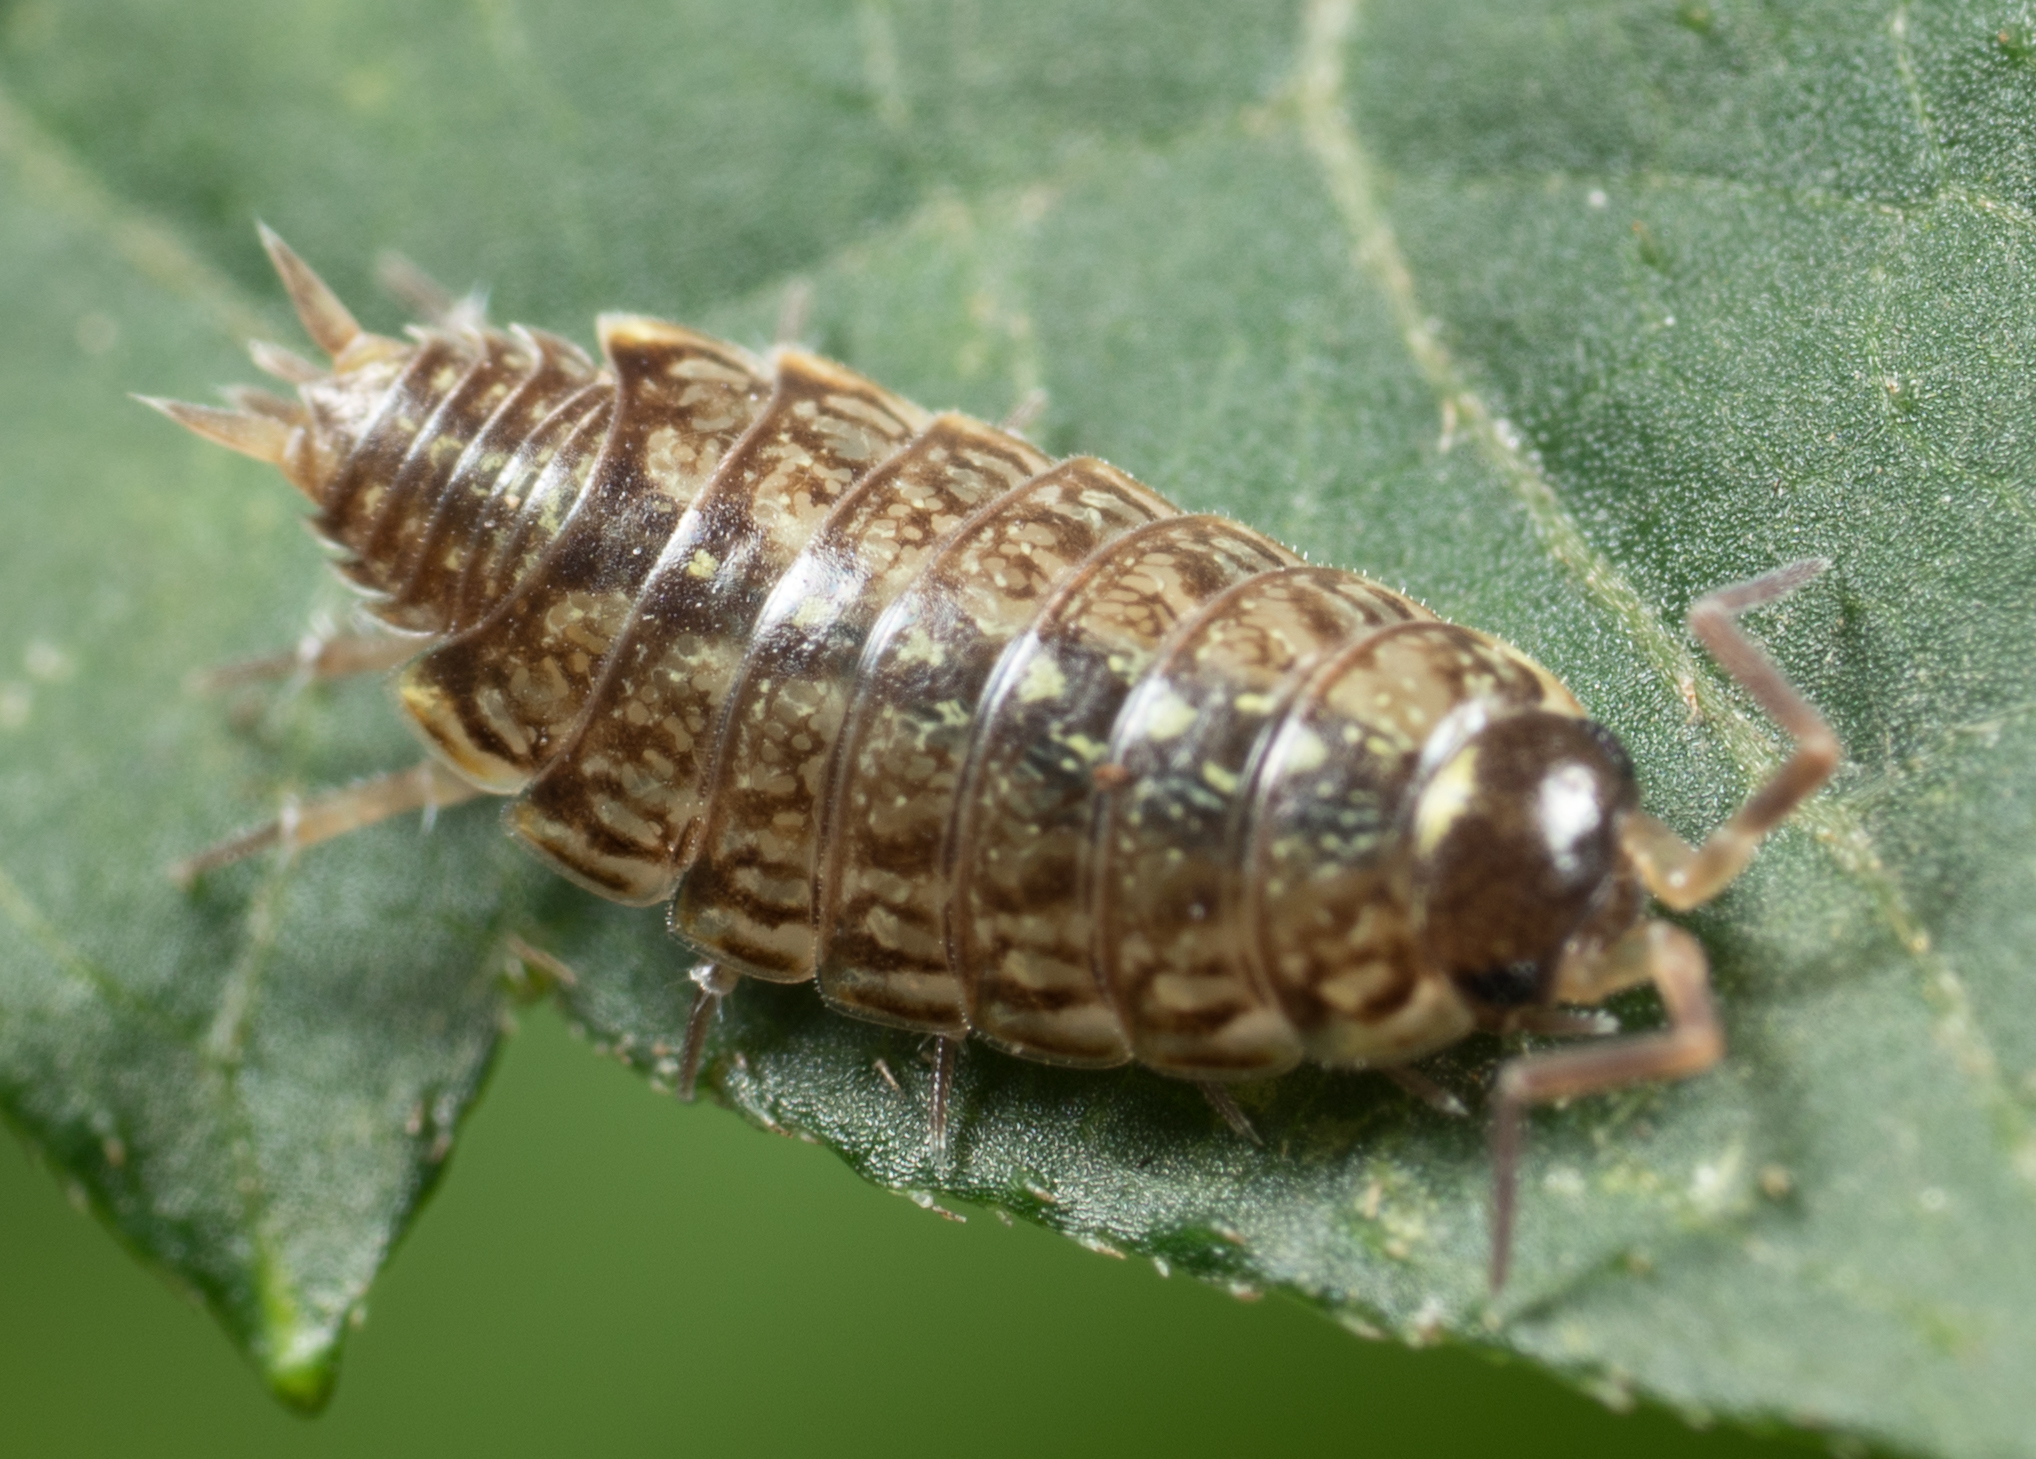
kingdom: Animalia
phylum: Arthropoda
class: Malacostraca
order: Isopoda
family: Philosciidae
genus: Philoscia
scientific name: Philoscia muscorum
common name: Common striped woodlouse
